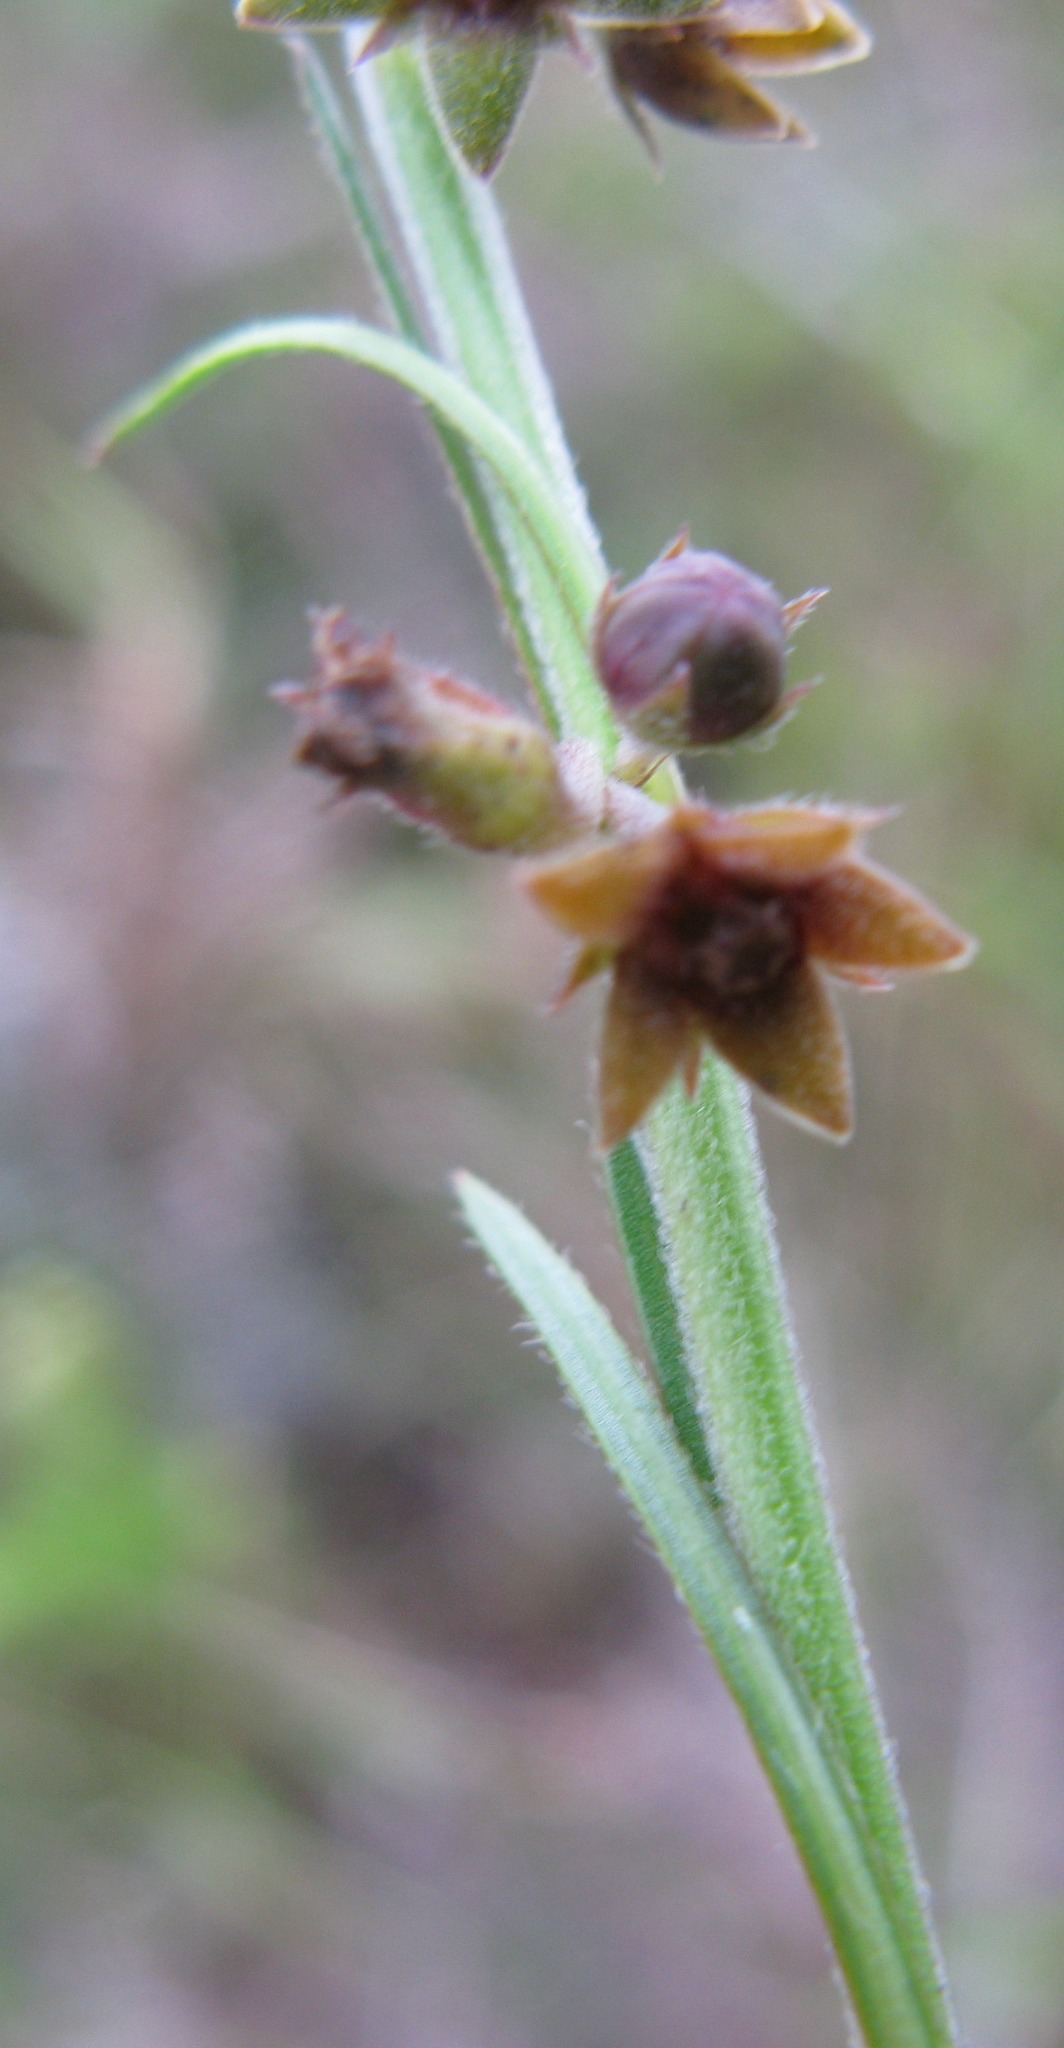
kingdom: Plantae
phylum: Tracheophyta
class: Magnoliopsida
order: Gentianales
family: Apocynaceae
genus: Aspidoglossum
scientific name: Aspidoglossum carinatum
